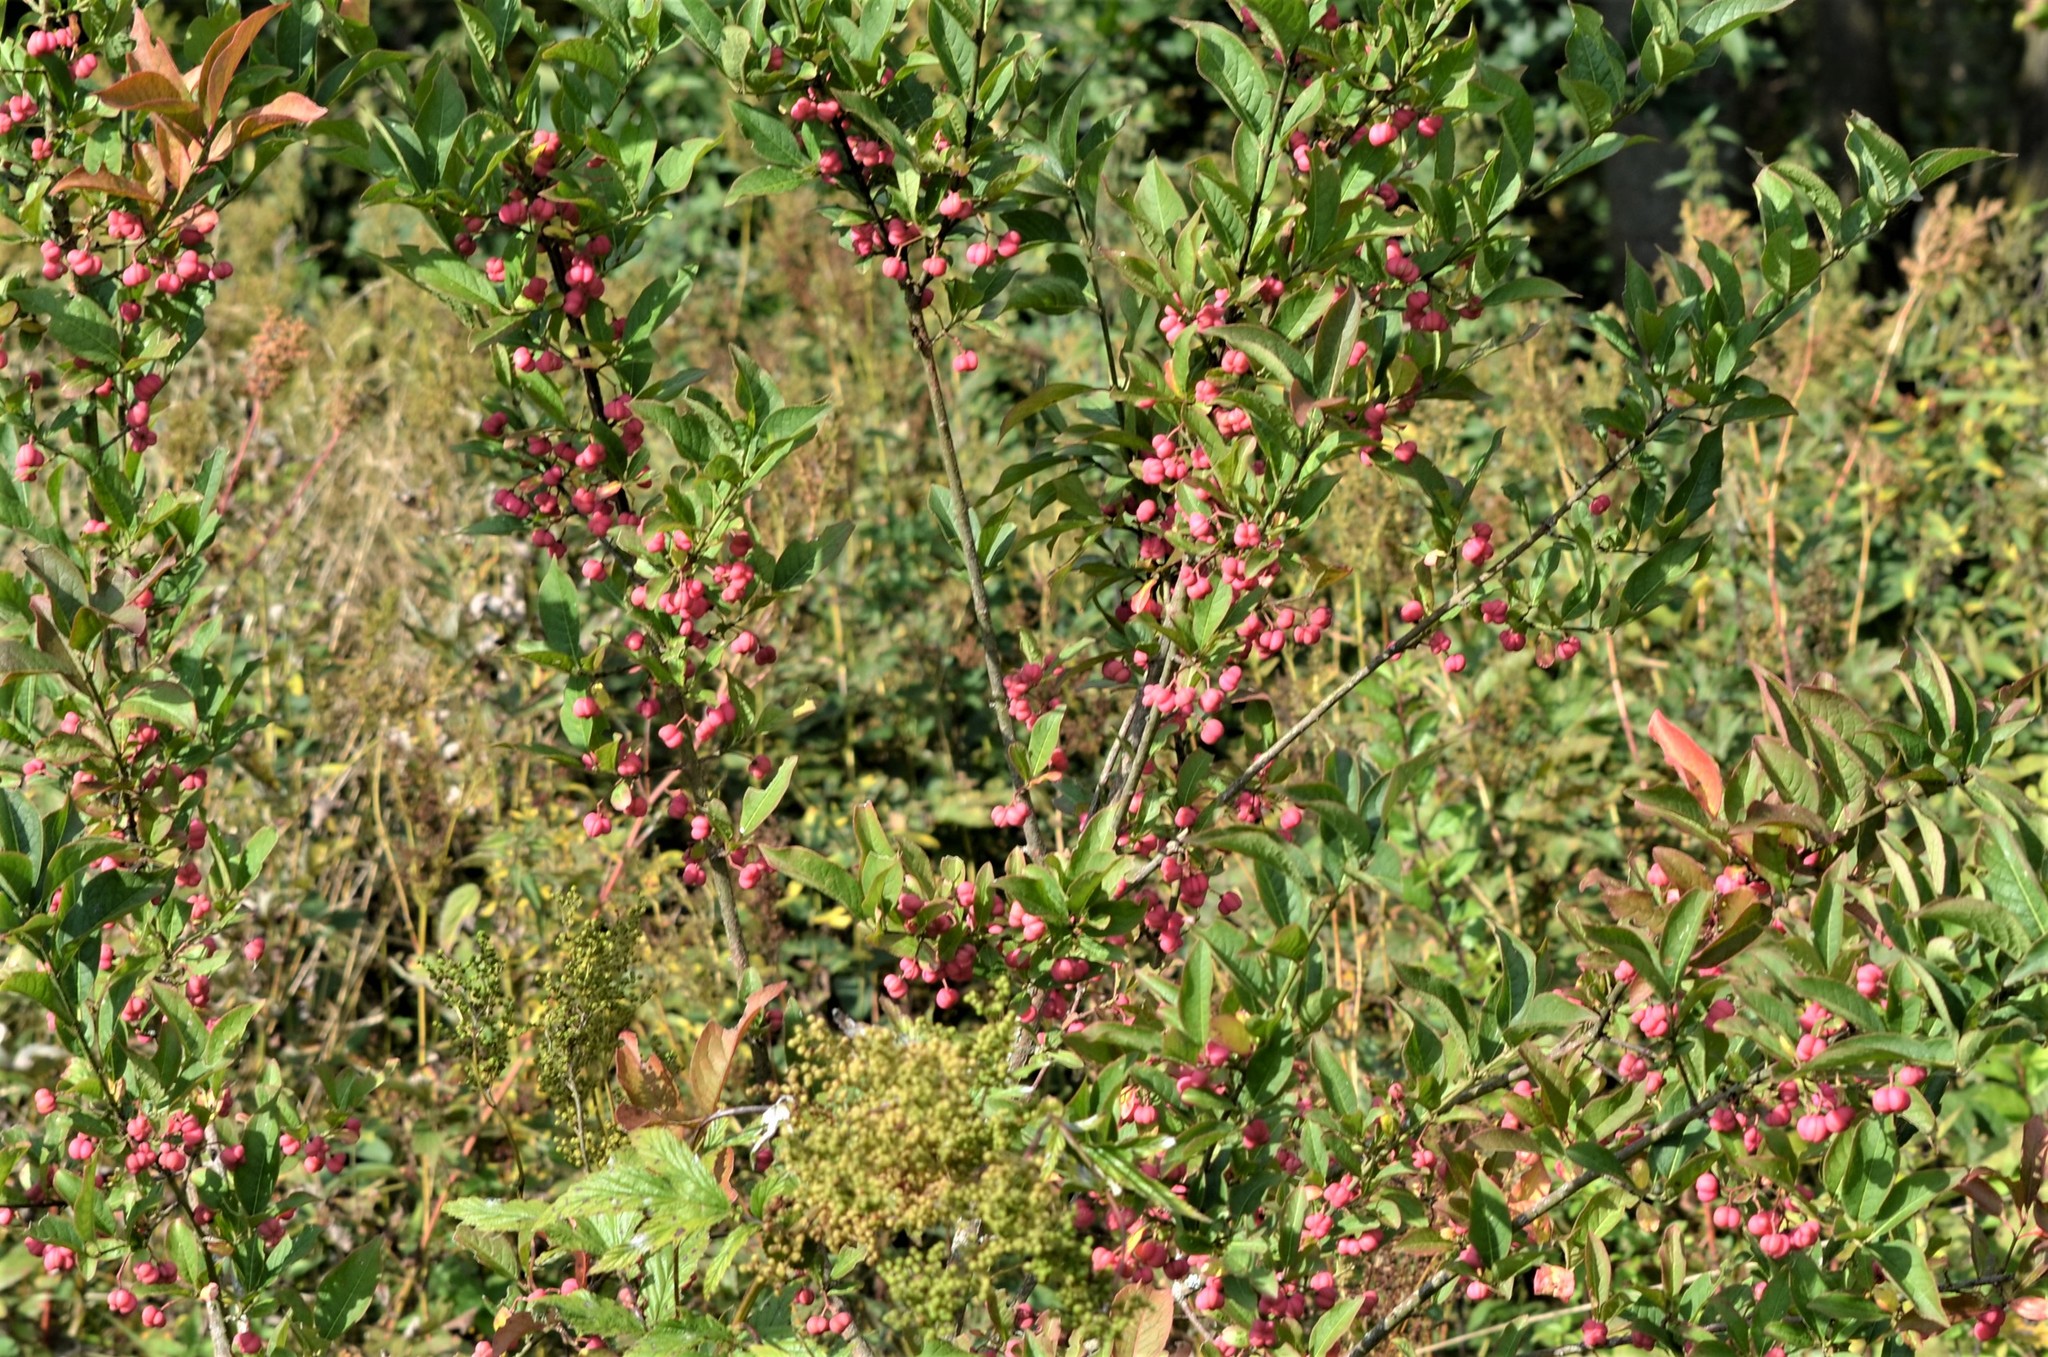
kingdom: Plantae
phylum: Tracheophyta
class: Magnoliopsida
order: Celastrales
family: Celastraceae
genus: Euonymus
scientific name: Euonymus europaeus
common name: Spindle
